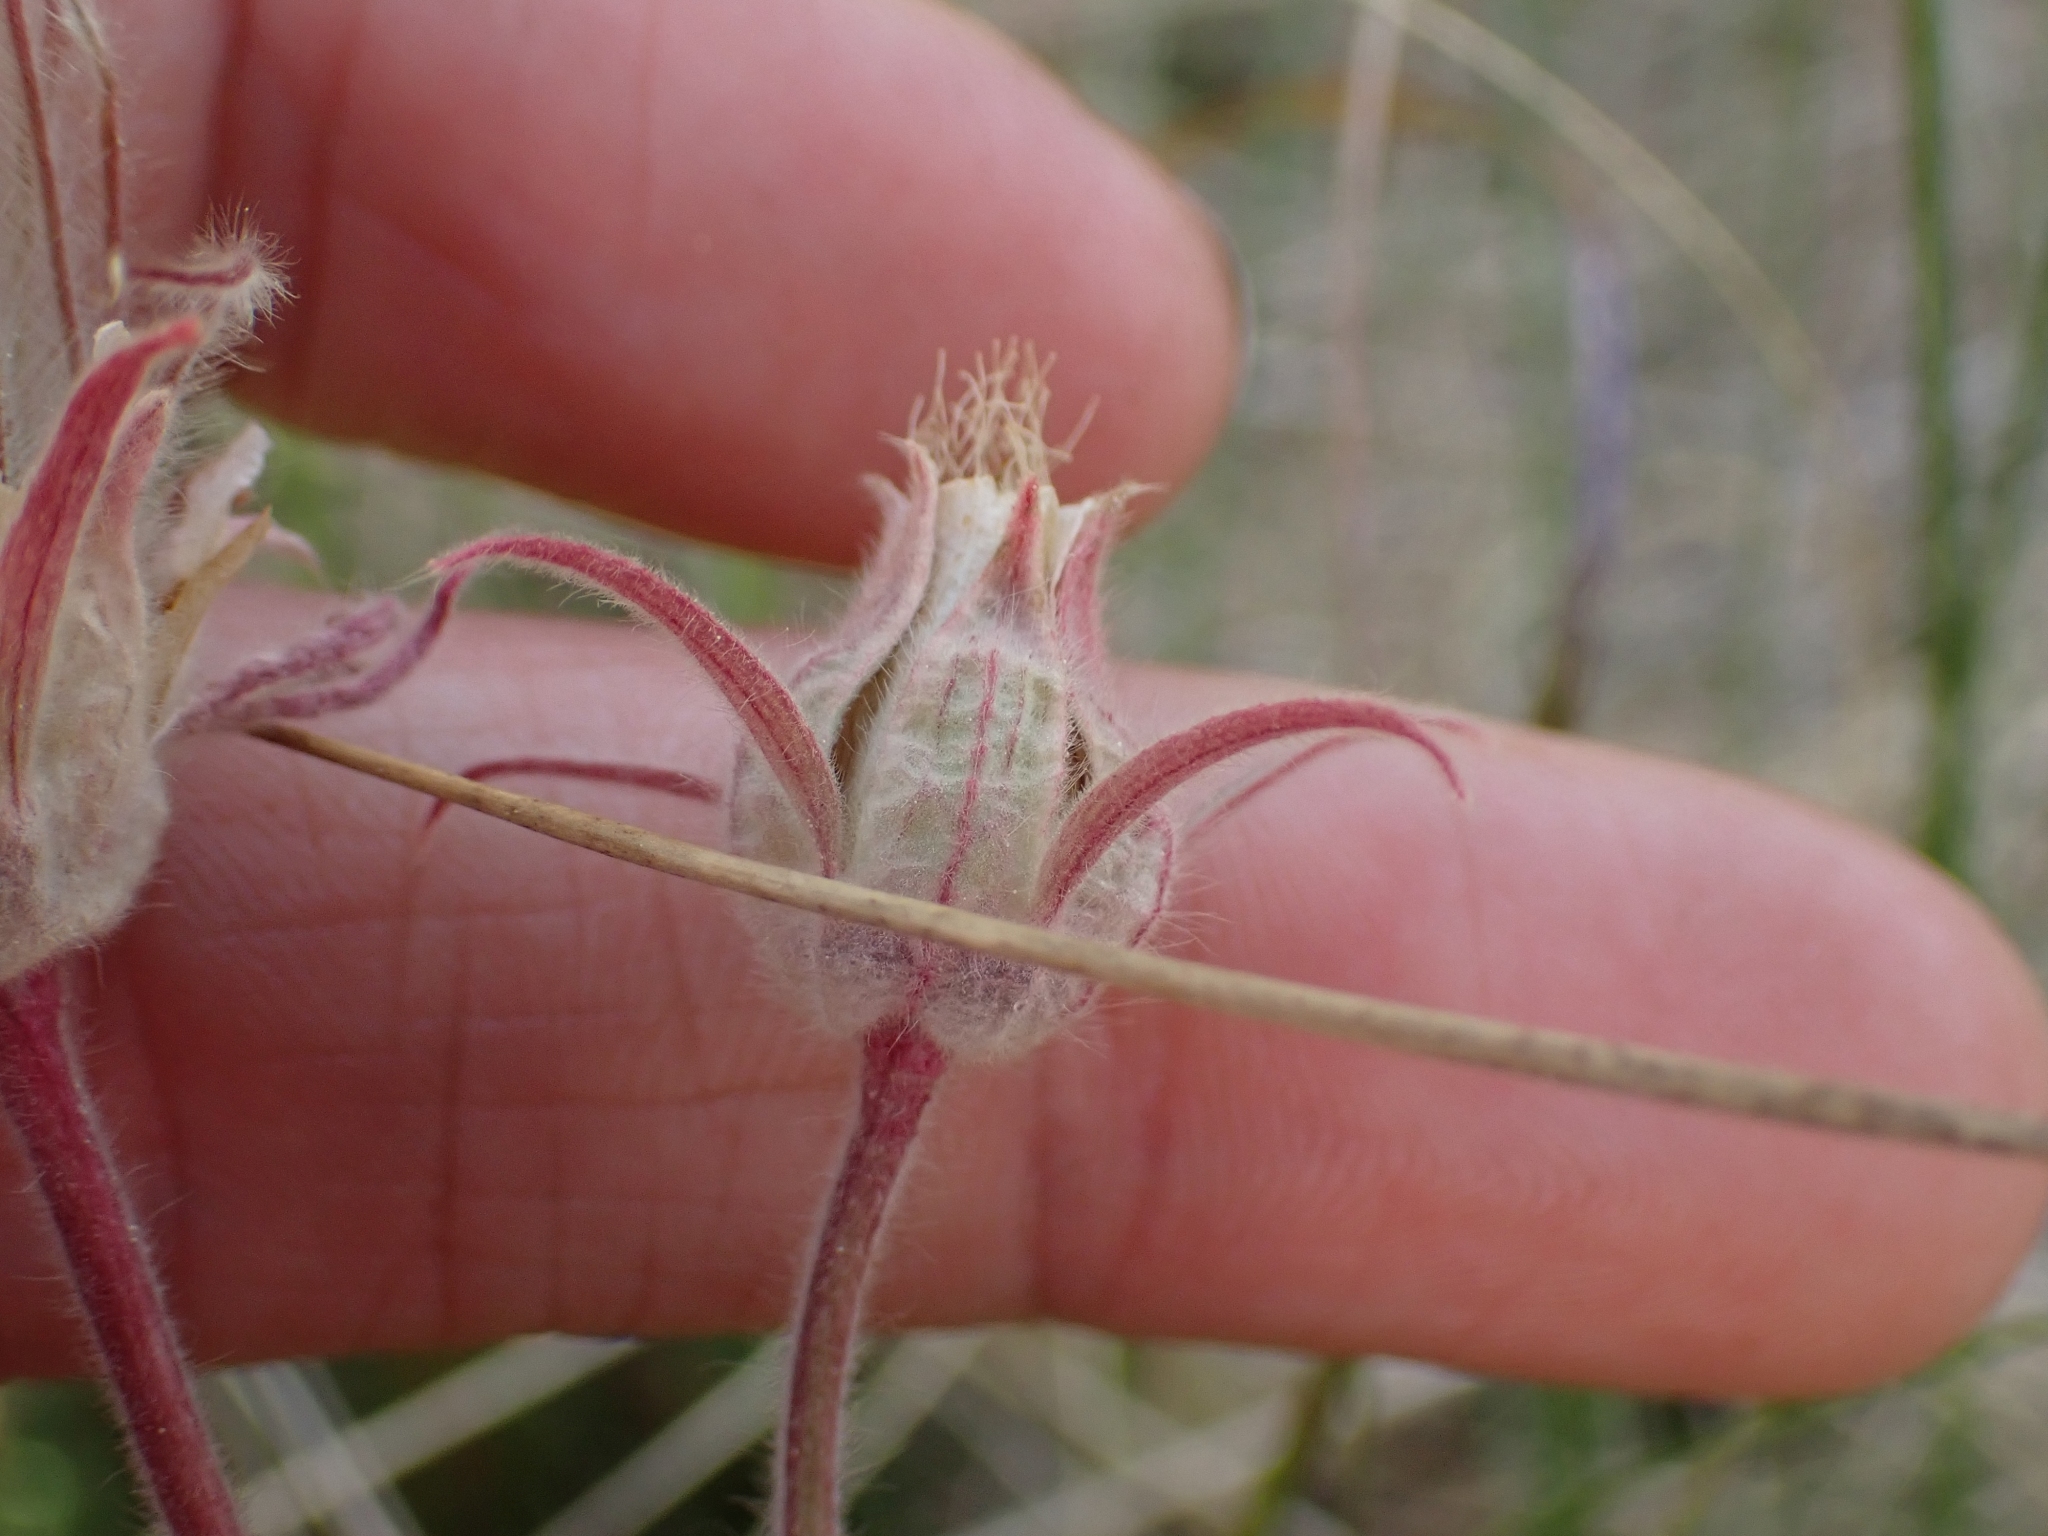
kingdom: Plantae
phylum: Tracheophyta
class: Magnoliopsida
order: Rosales
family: Rosaceae
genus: Geum
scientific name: Geum triflorum
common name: Old man's whiskers
